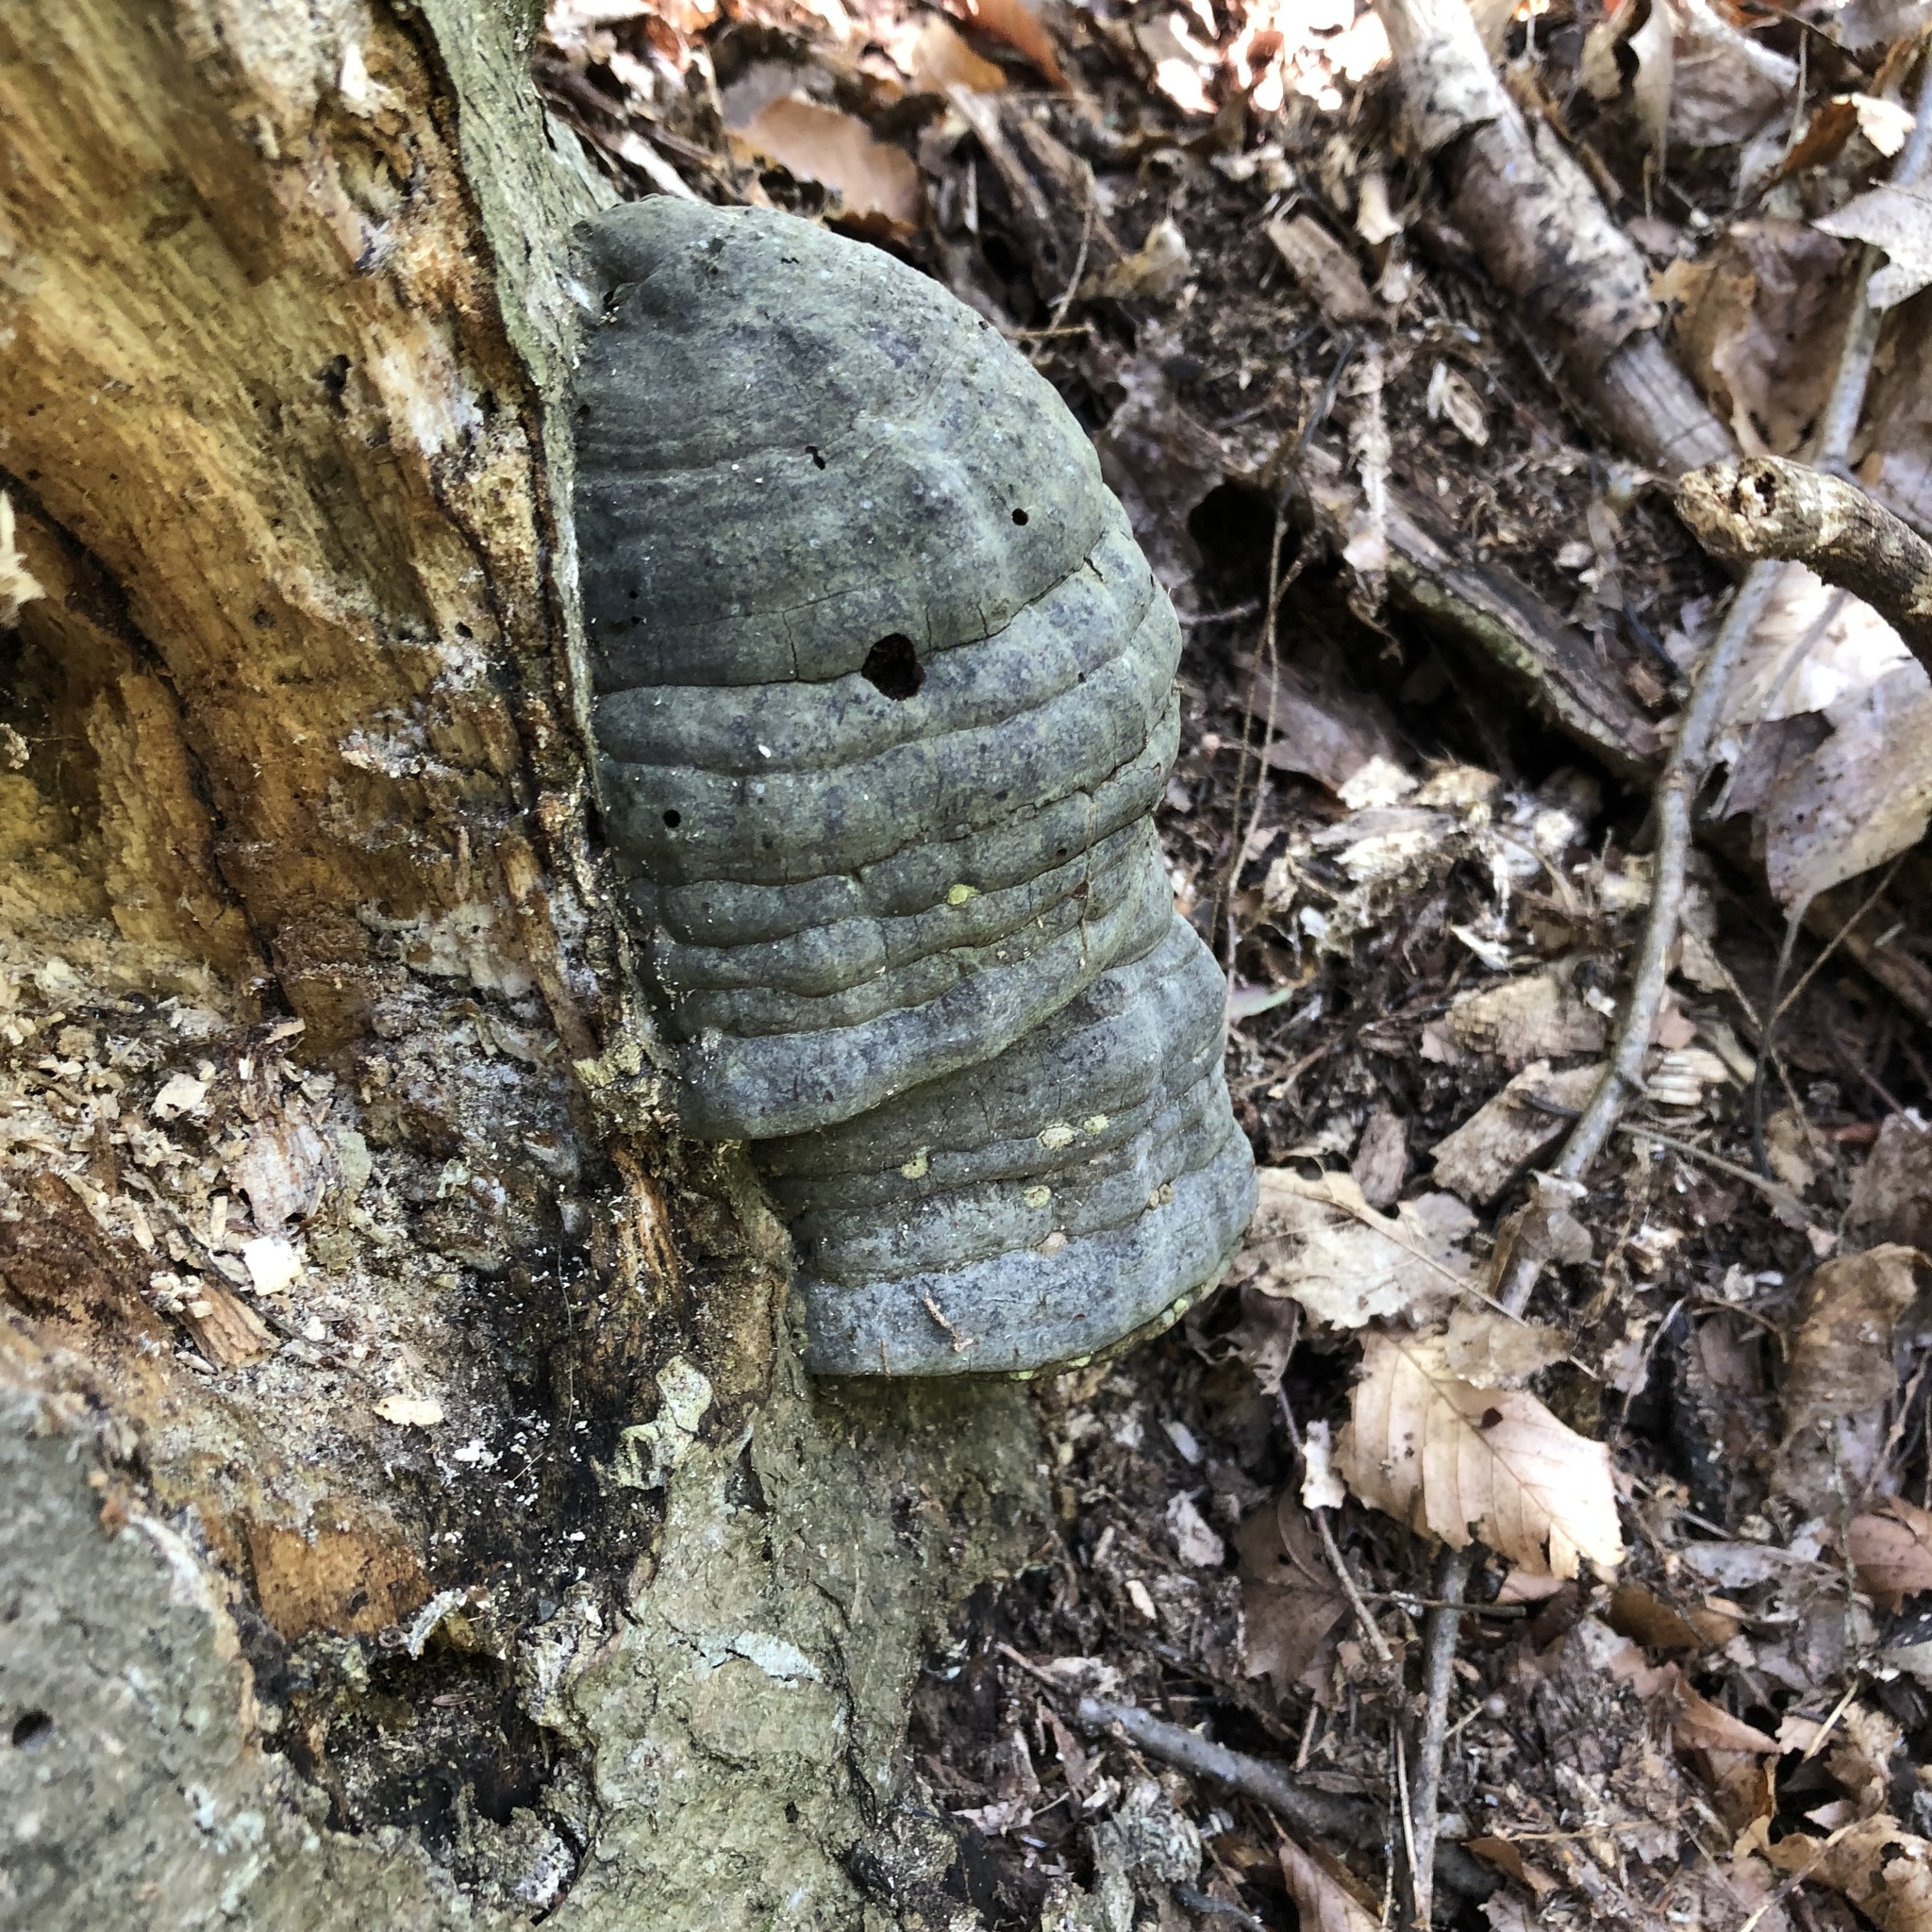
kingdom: Fungi
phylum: Basidiomycota
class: Agaricomycetes
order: Polyporales
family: Polyporaceae
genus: Fomes
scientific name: Fomes fomentarius
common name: Hoof fungus
